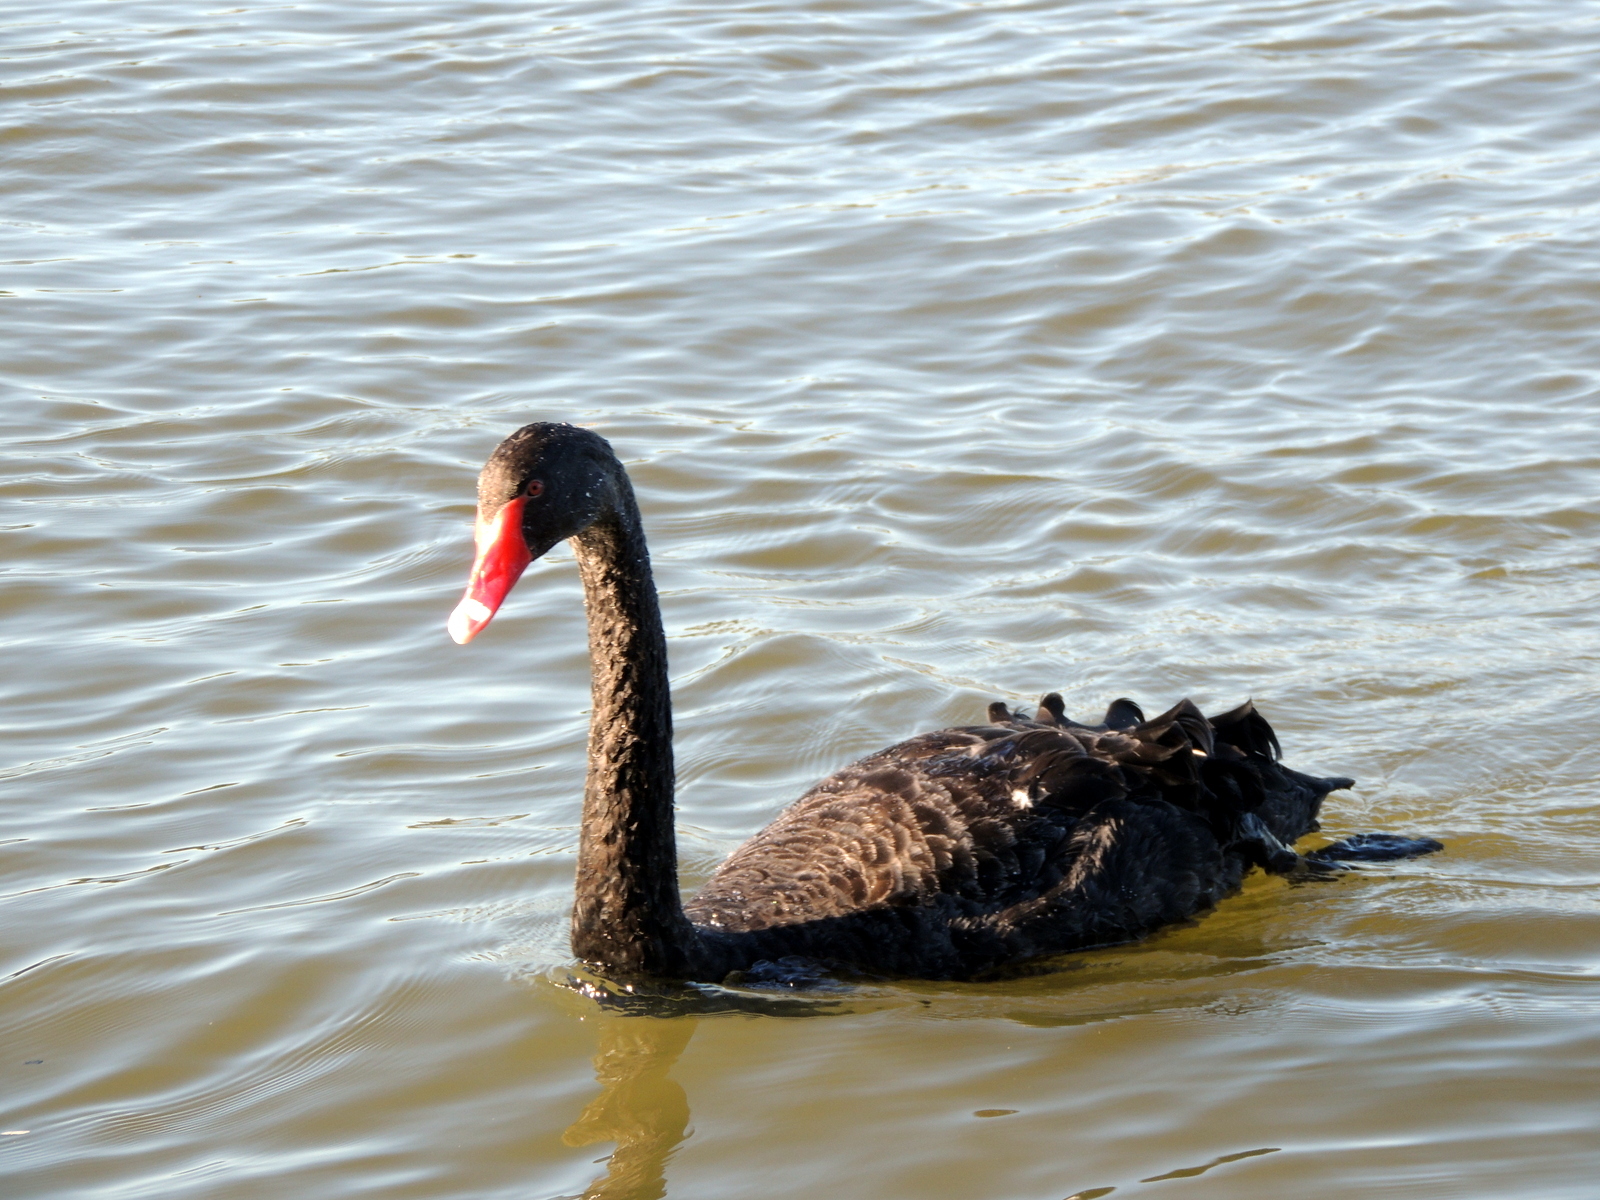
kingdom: Animalia
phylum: Chordata
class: Aves
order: Anseriformes
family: Anatidae
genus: Cygnus
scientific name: Cygnus atratus
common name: Black swan
